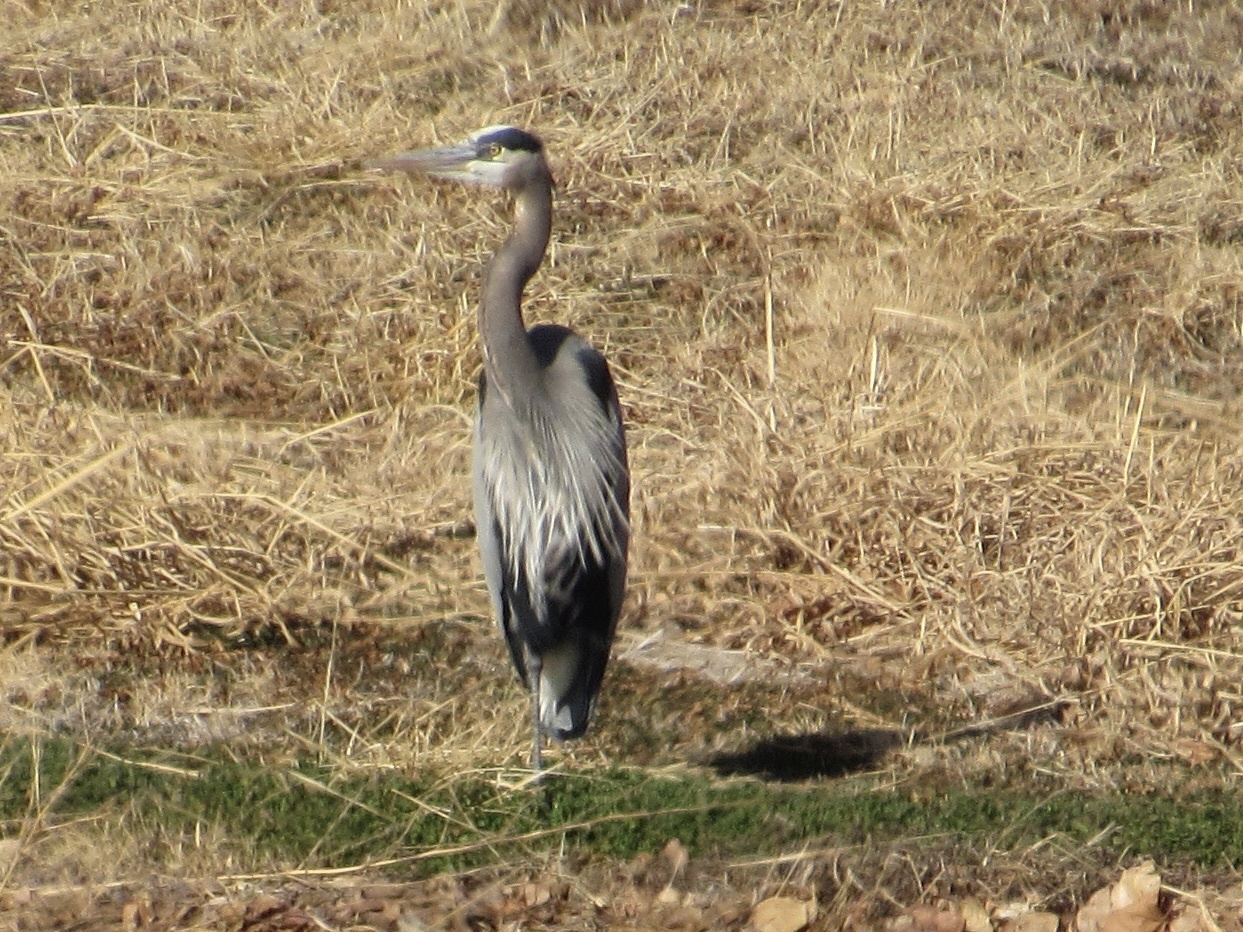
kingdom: Animalia
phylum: Chordata
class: Aves
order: Pelecaniformes
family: Ardeidae
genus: Ardea
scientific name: Ardea herodias
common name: Great blue heron
